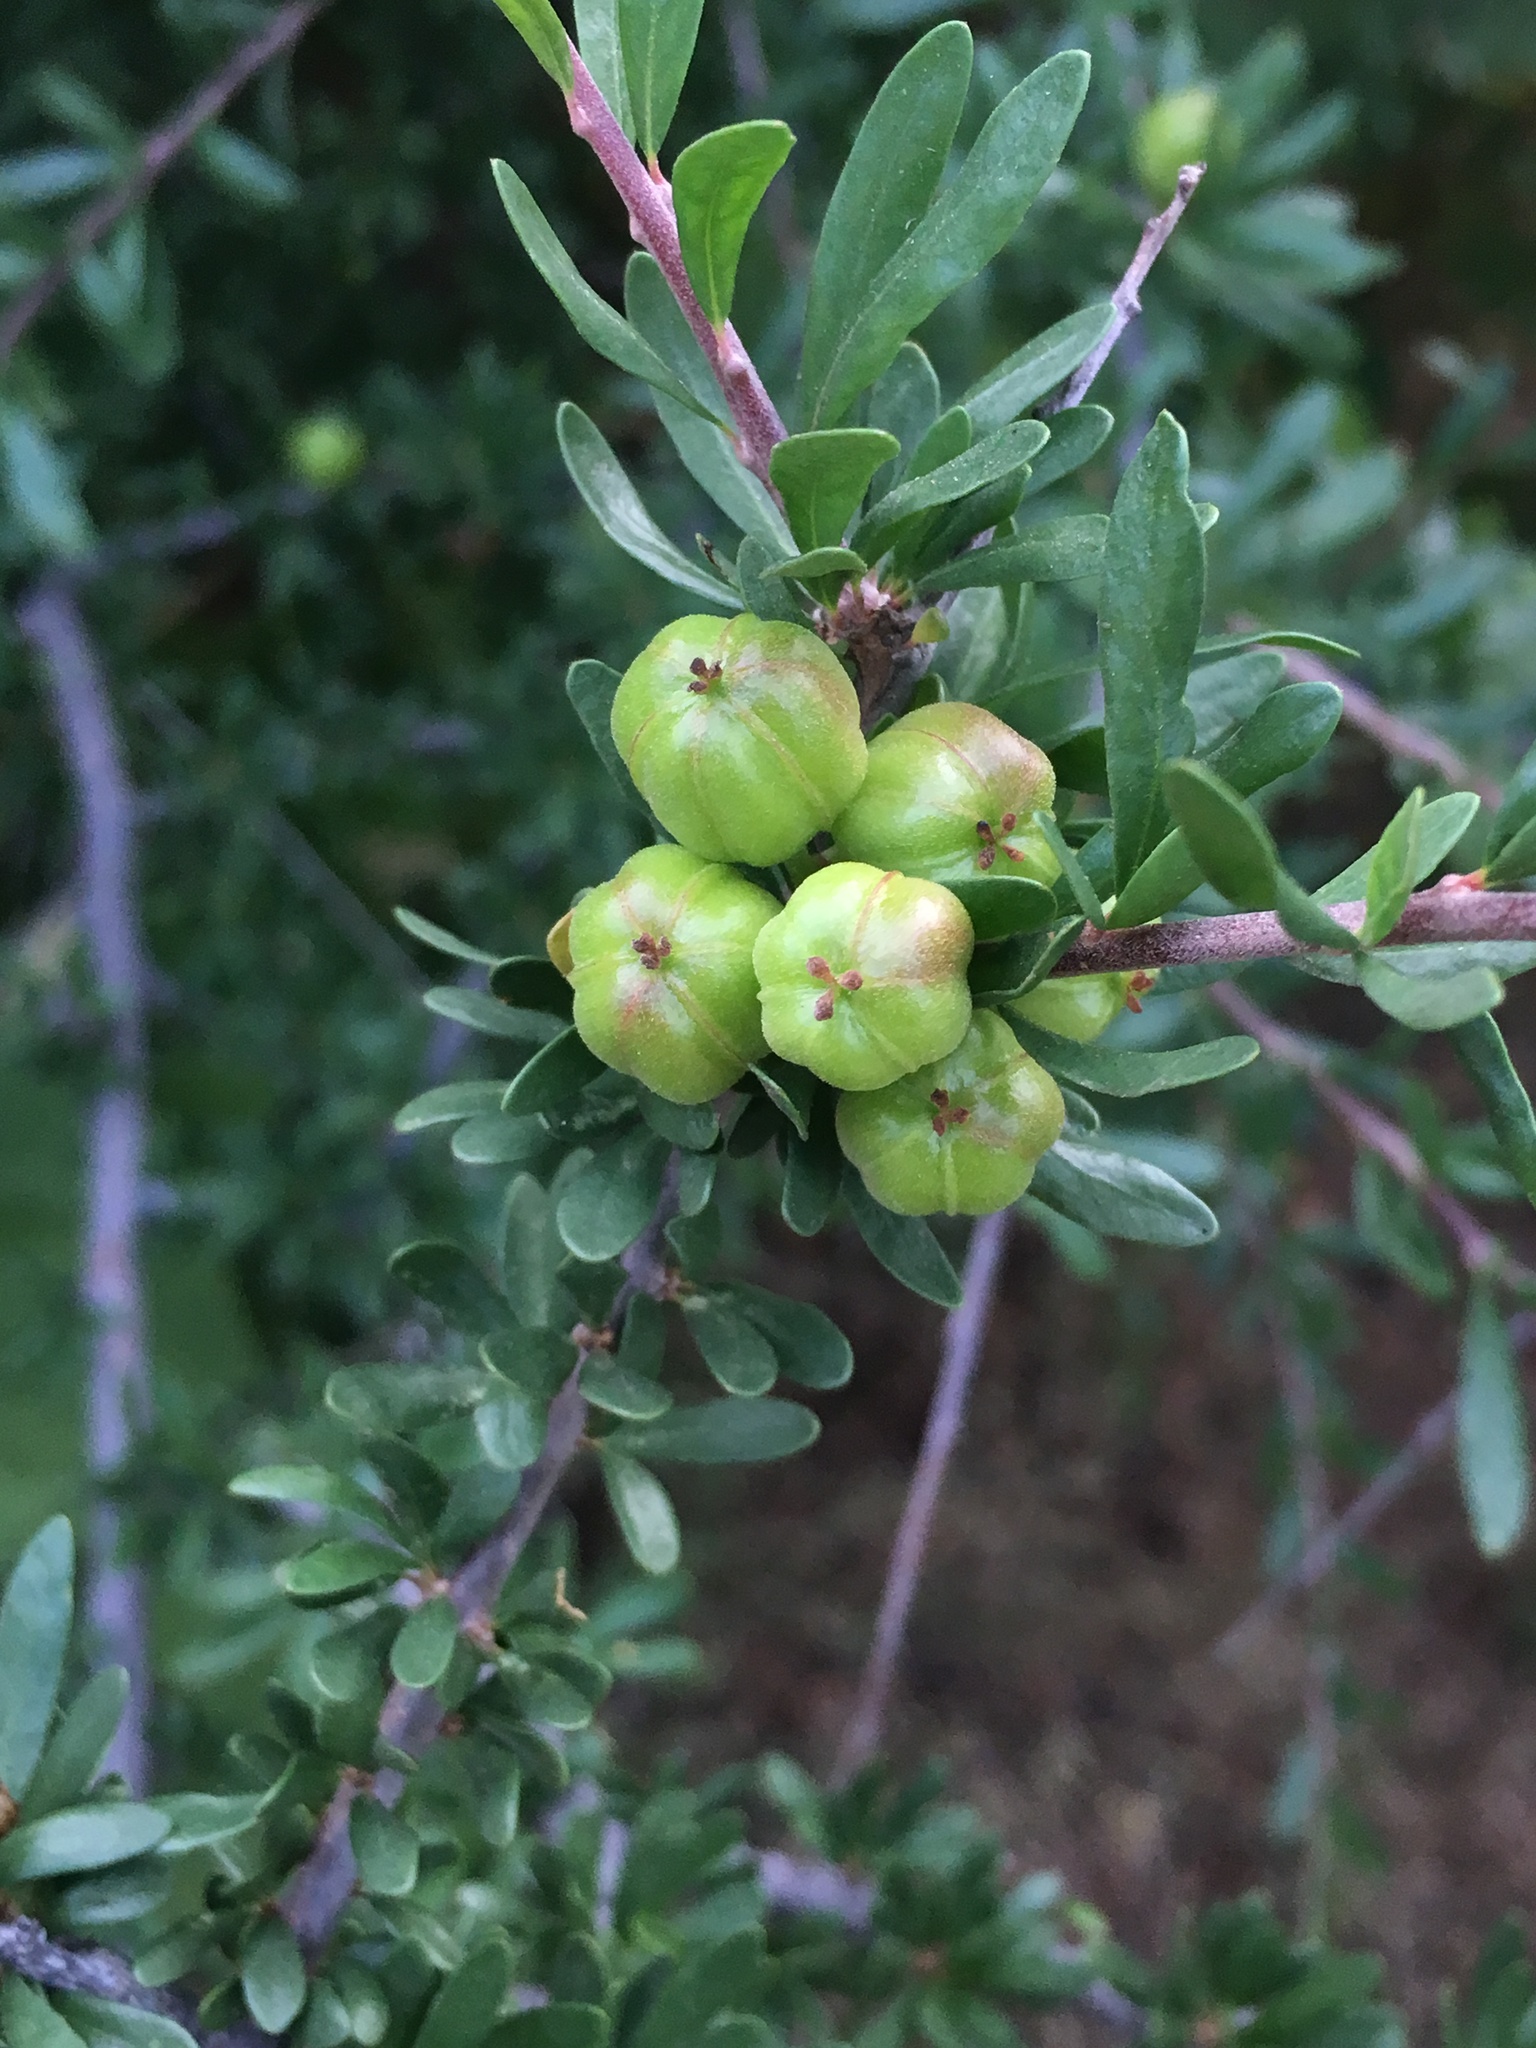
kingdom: Plantae
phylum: Tracheophyta
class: Magnoliopsida
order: Malpighiales
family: Picrodendraceae
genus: Tetracoccus
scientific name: Tetracoccus capensis
